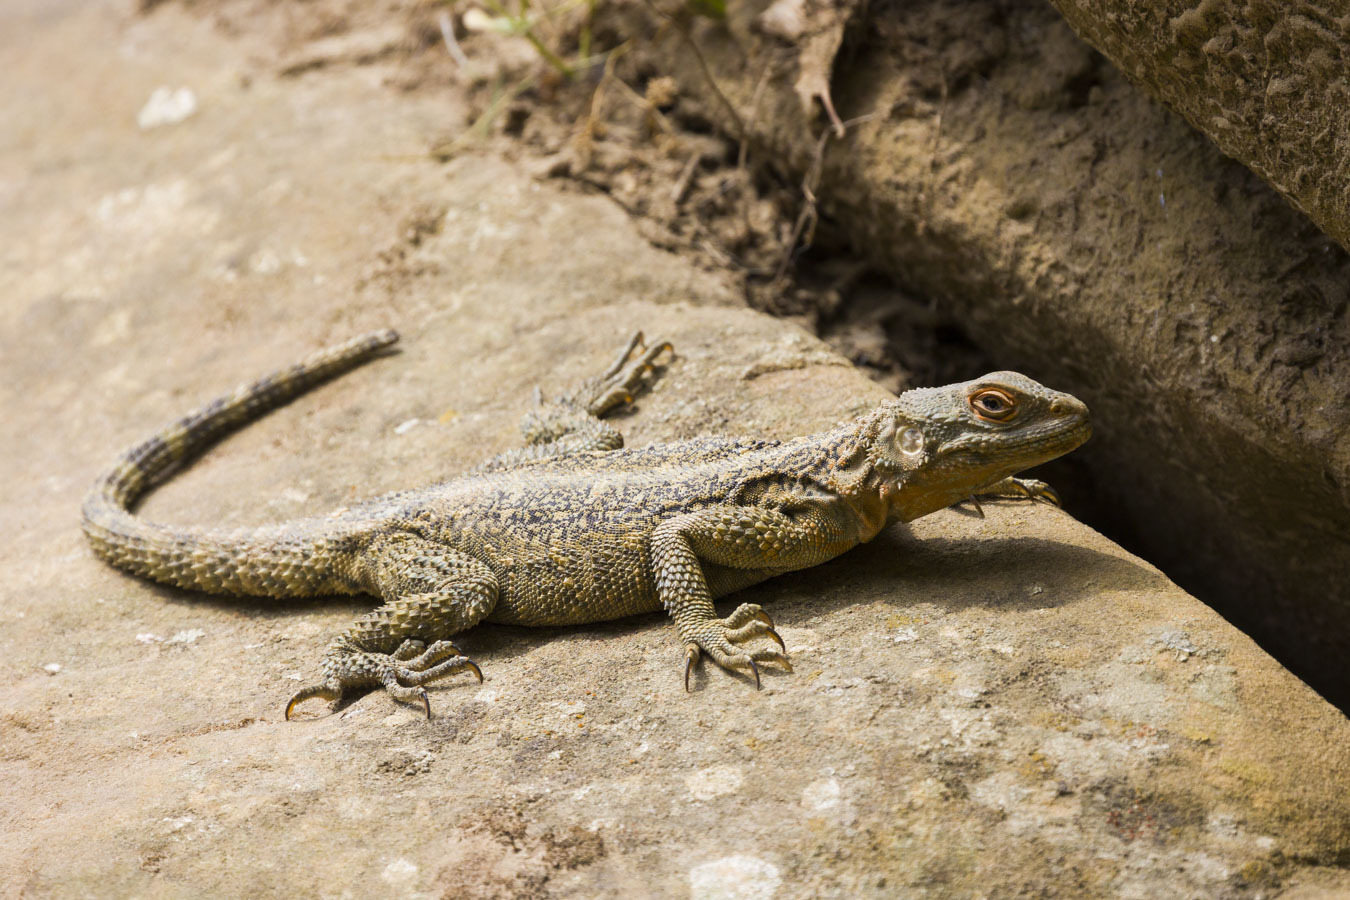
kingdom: Animalia
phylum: Chordata
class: Squamata
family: Agamidae
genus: Paralaudakia
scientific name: Paralaudakia caucasia
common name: Caucasian agama
